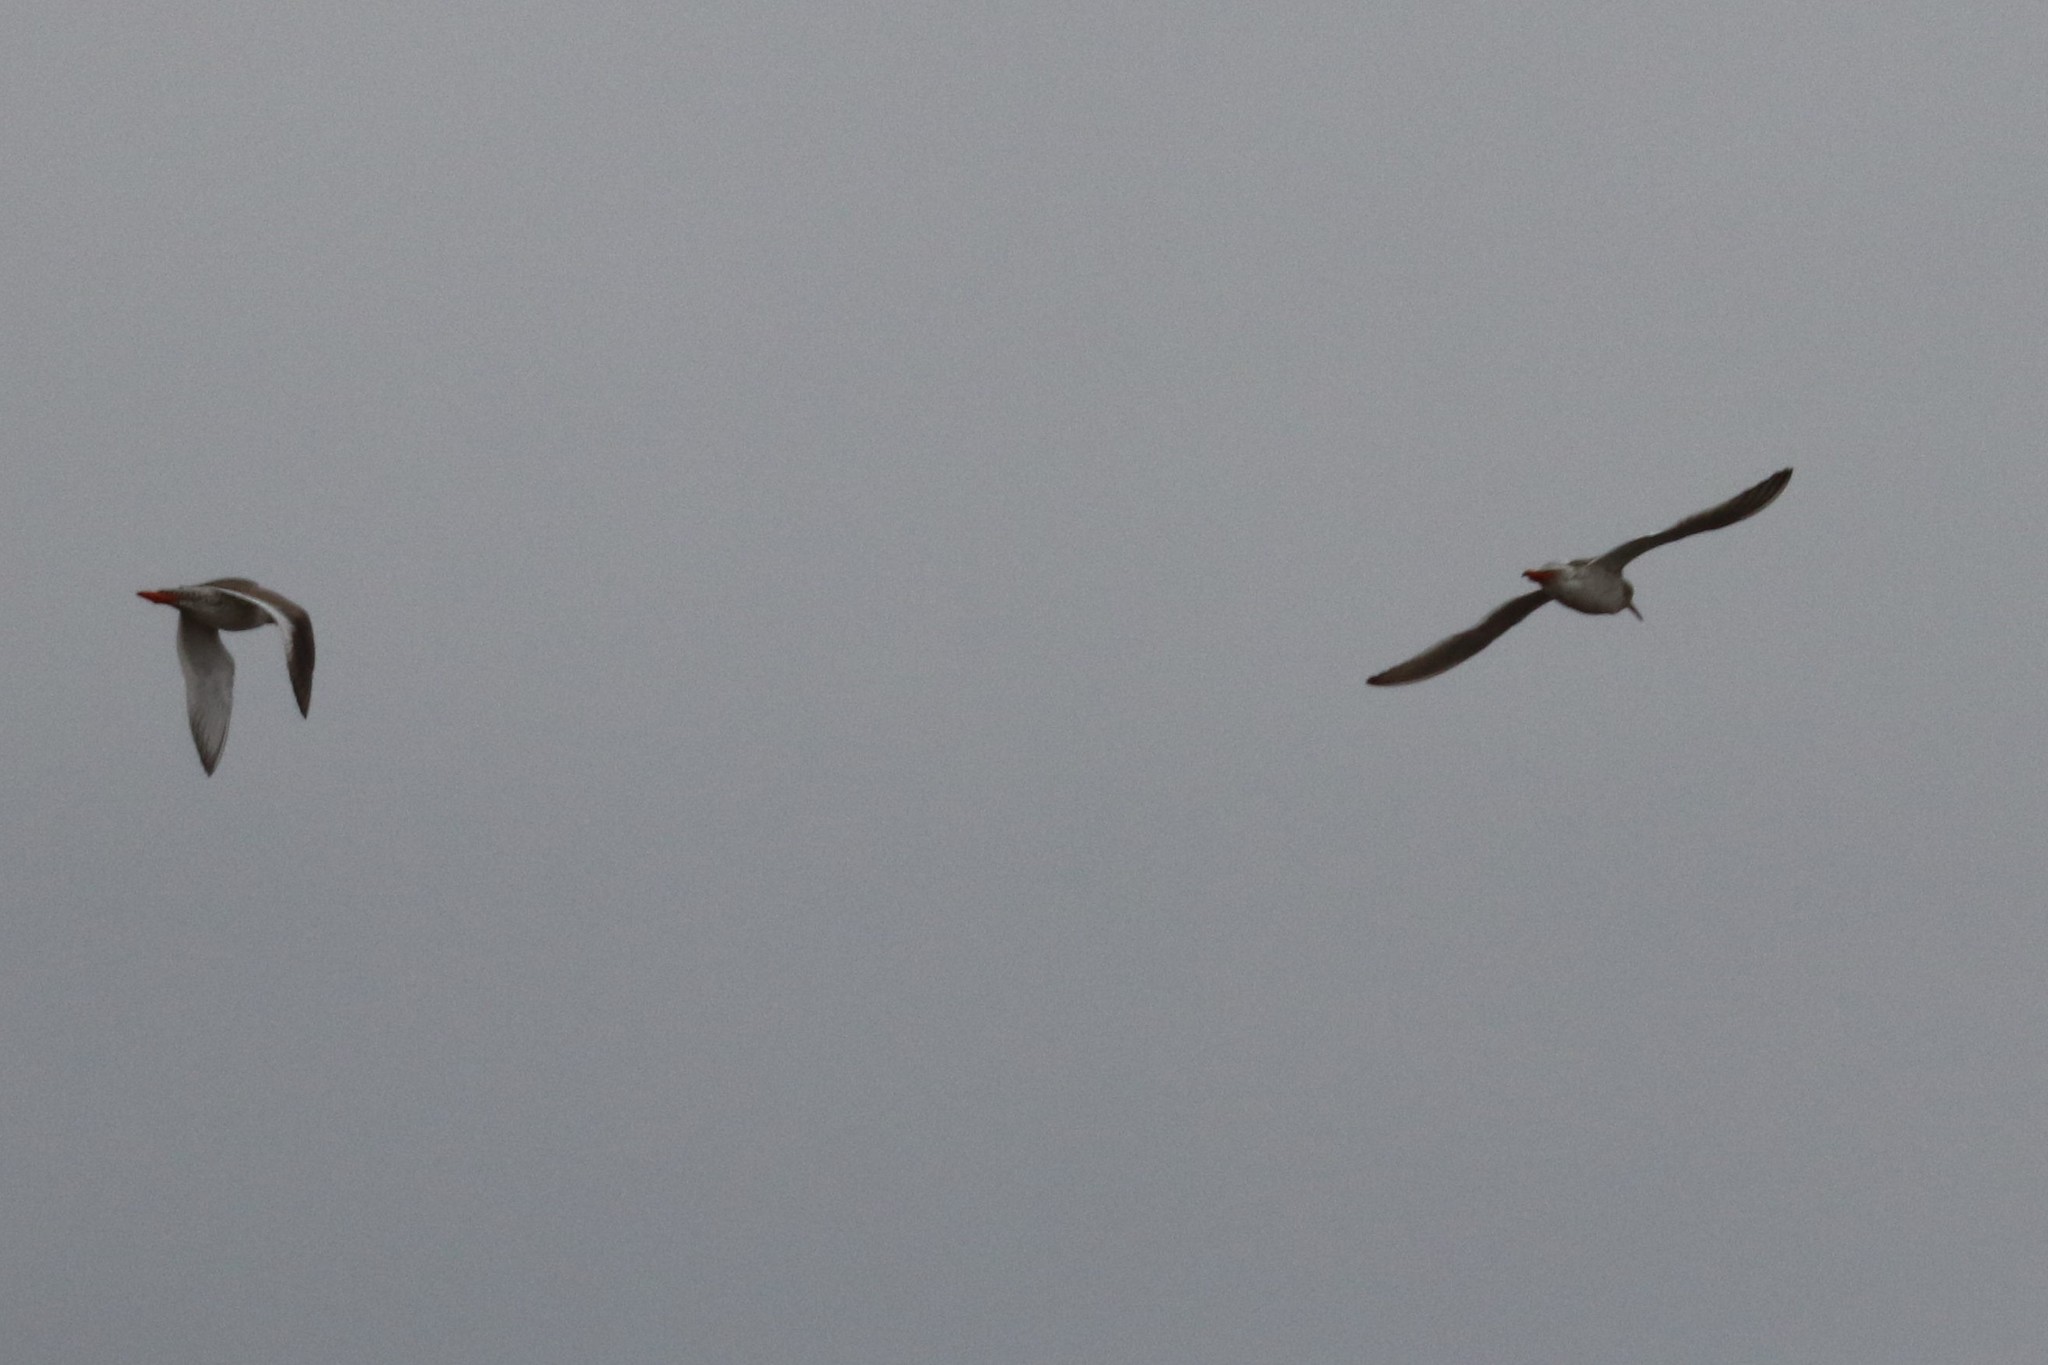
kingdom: Animalia
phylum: Chordata
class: Aves
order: Charadriiformes
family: Scolopacidae
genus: Tringa
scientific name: Tringa totanus
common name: Common redshank
